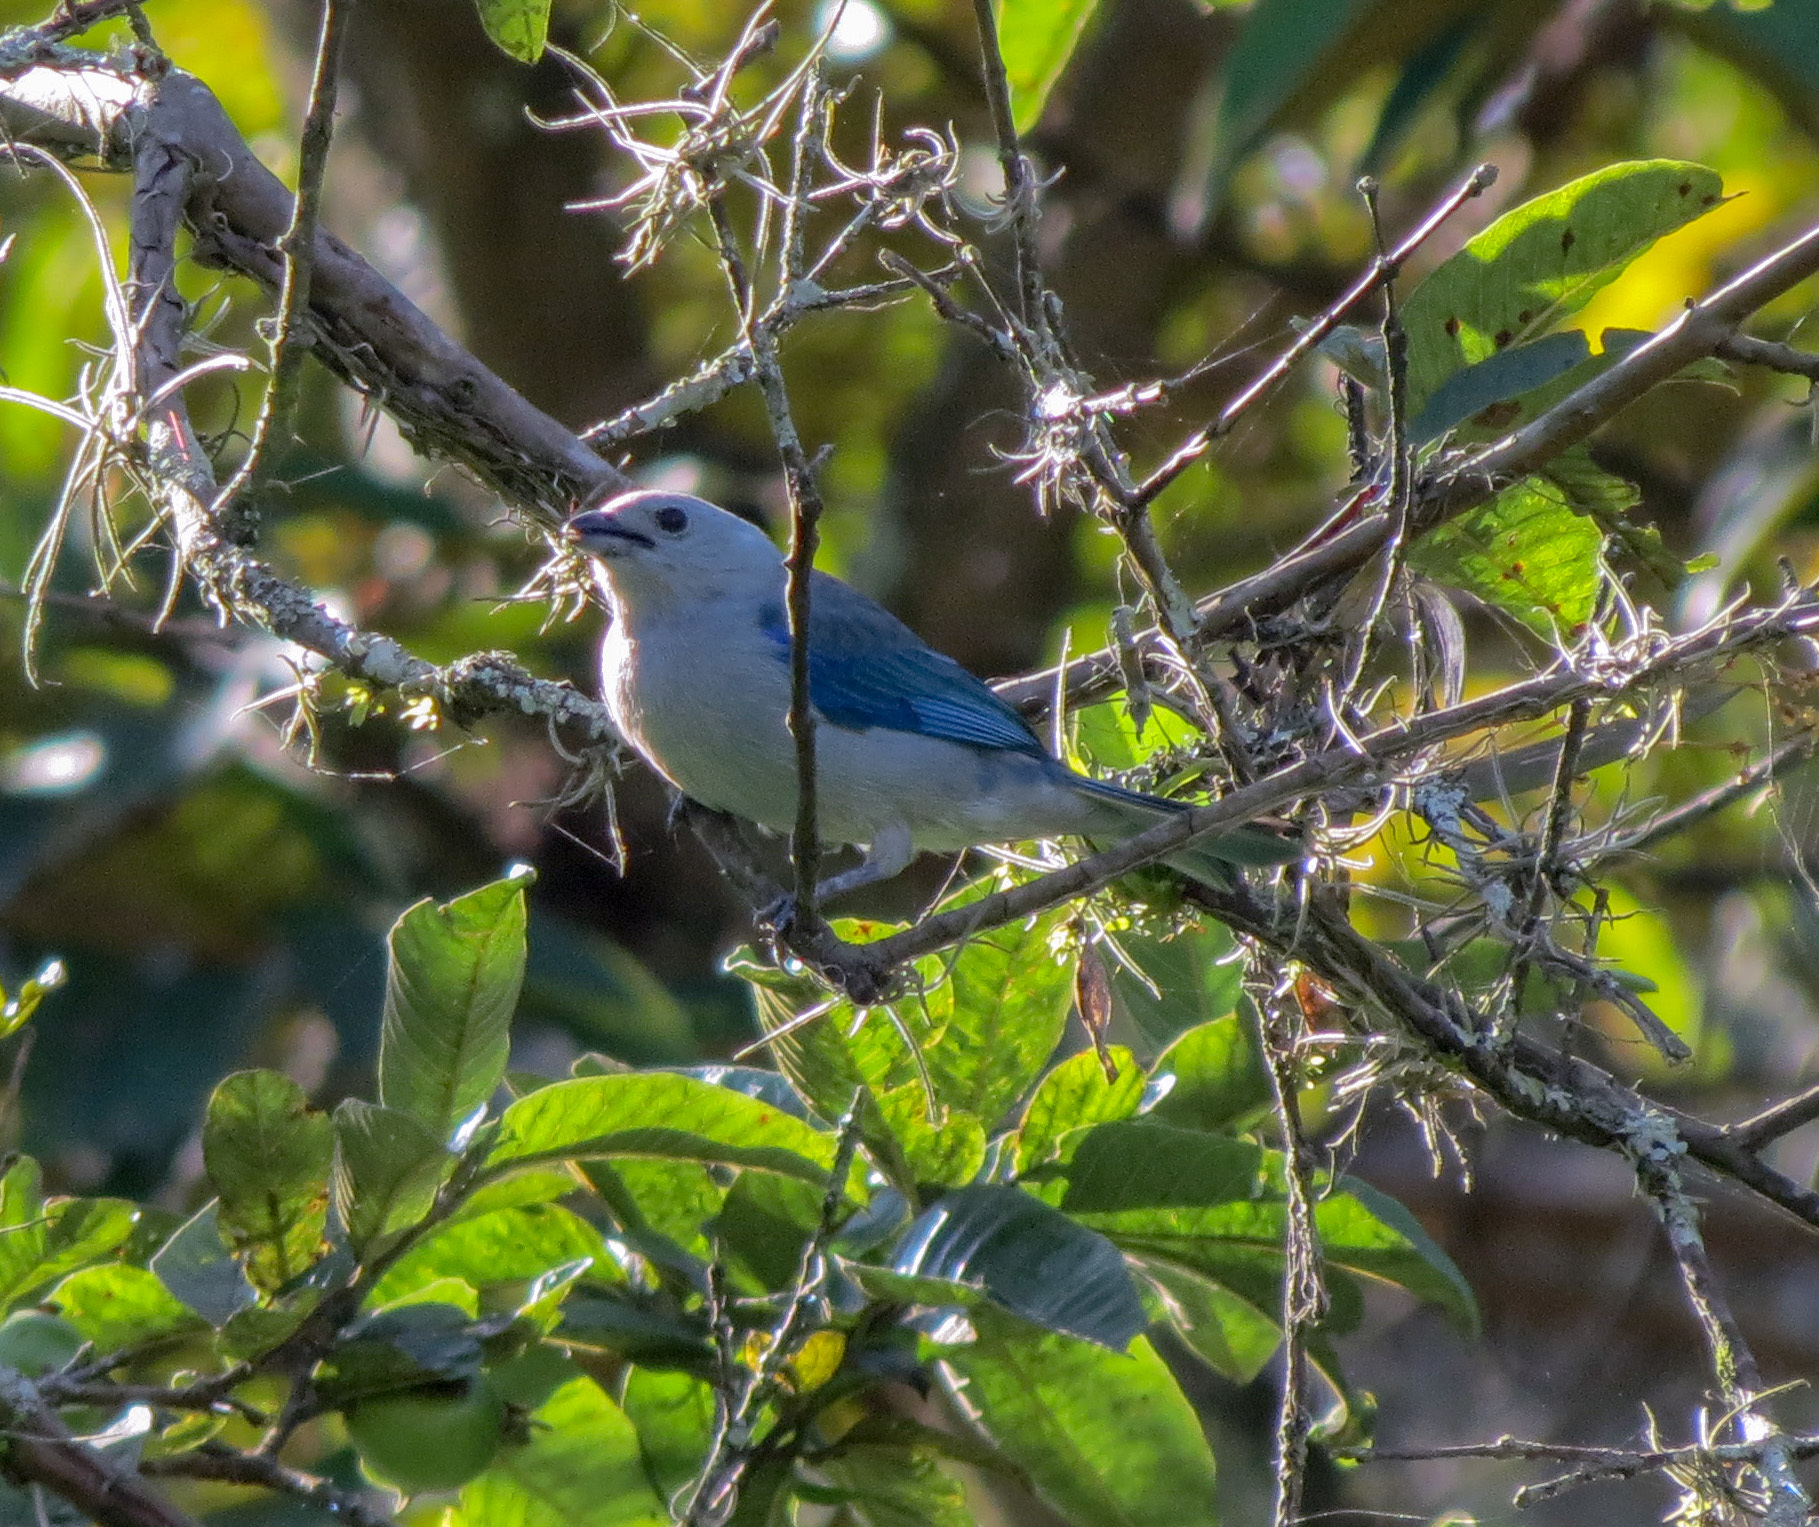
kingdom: Animalia
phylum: Chordata
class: Aves
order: Passeriformes
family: Thraupidae
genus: Thraupis
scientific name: Thraupis episcopus
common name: Blue-grey tanager
